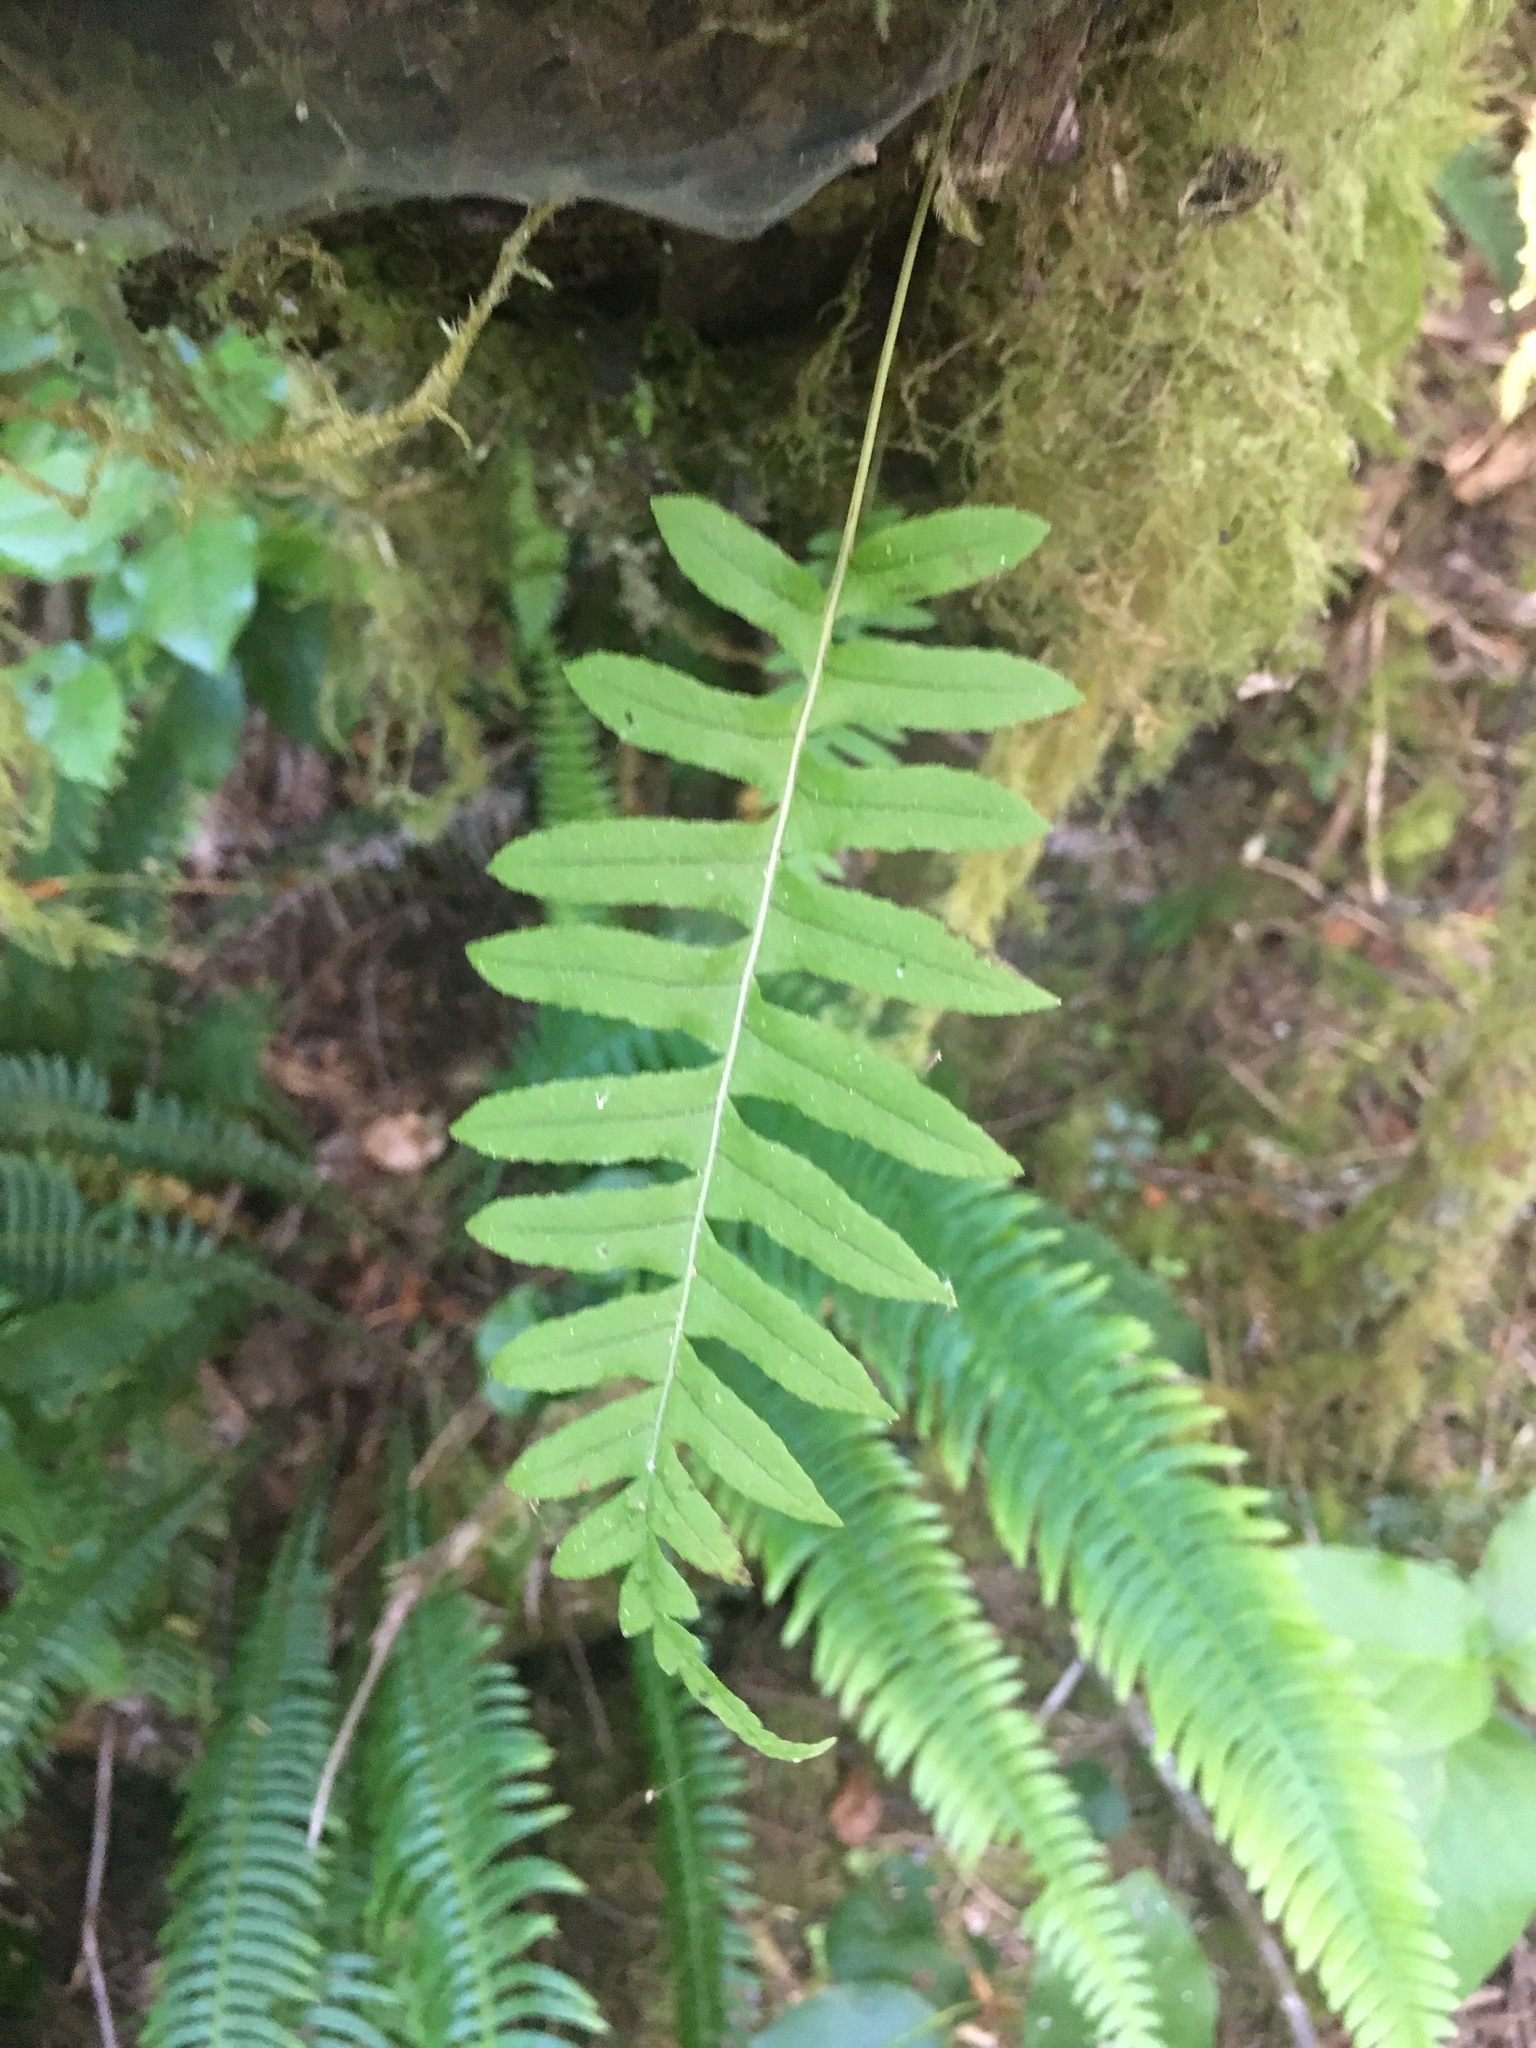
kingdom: Plantae
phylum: Tracheophyta
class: Polypodiopsida
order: Polypodiales
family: Polypodiaceae
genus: Polypodium
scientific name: Polypodium glycyrrhiza
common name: Licorice fern
